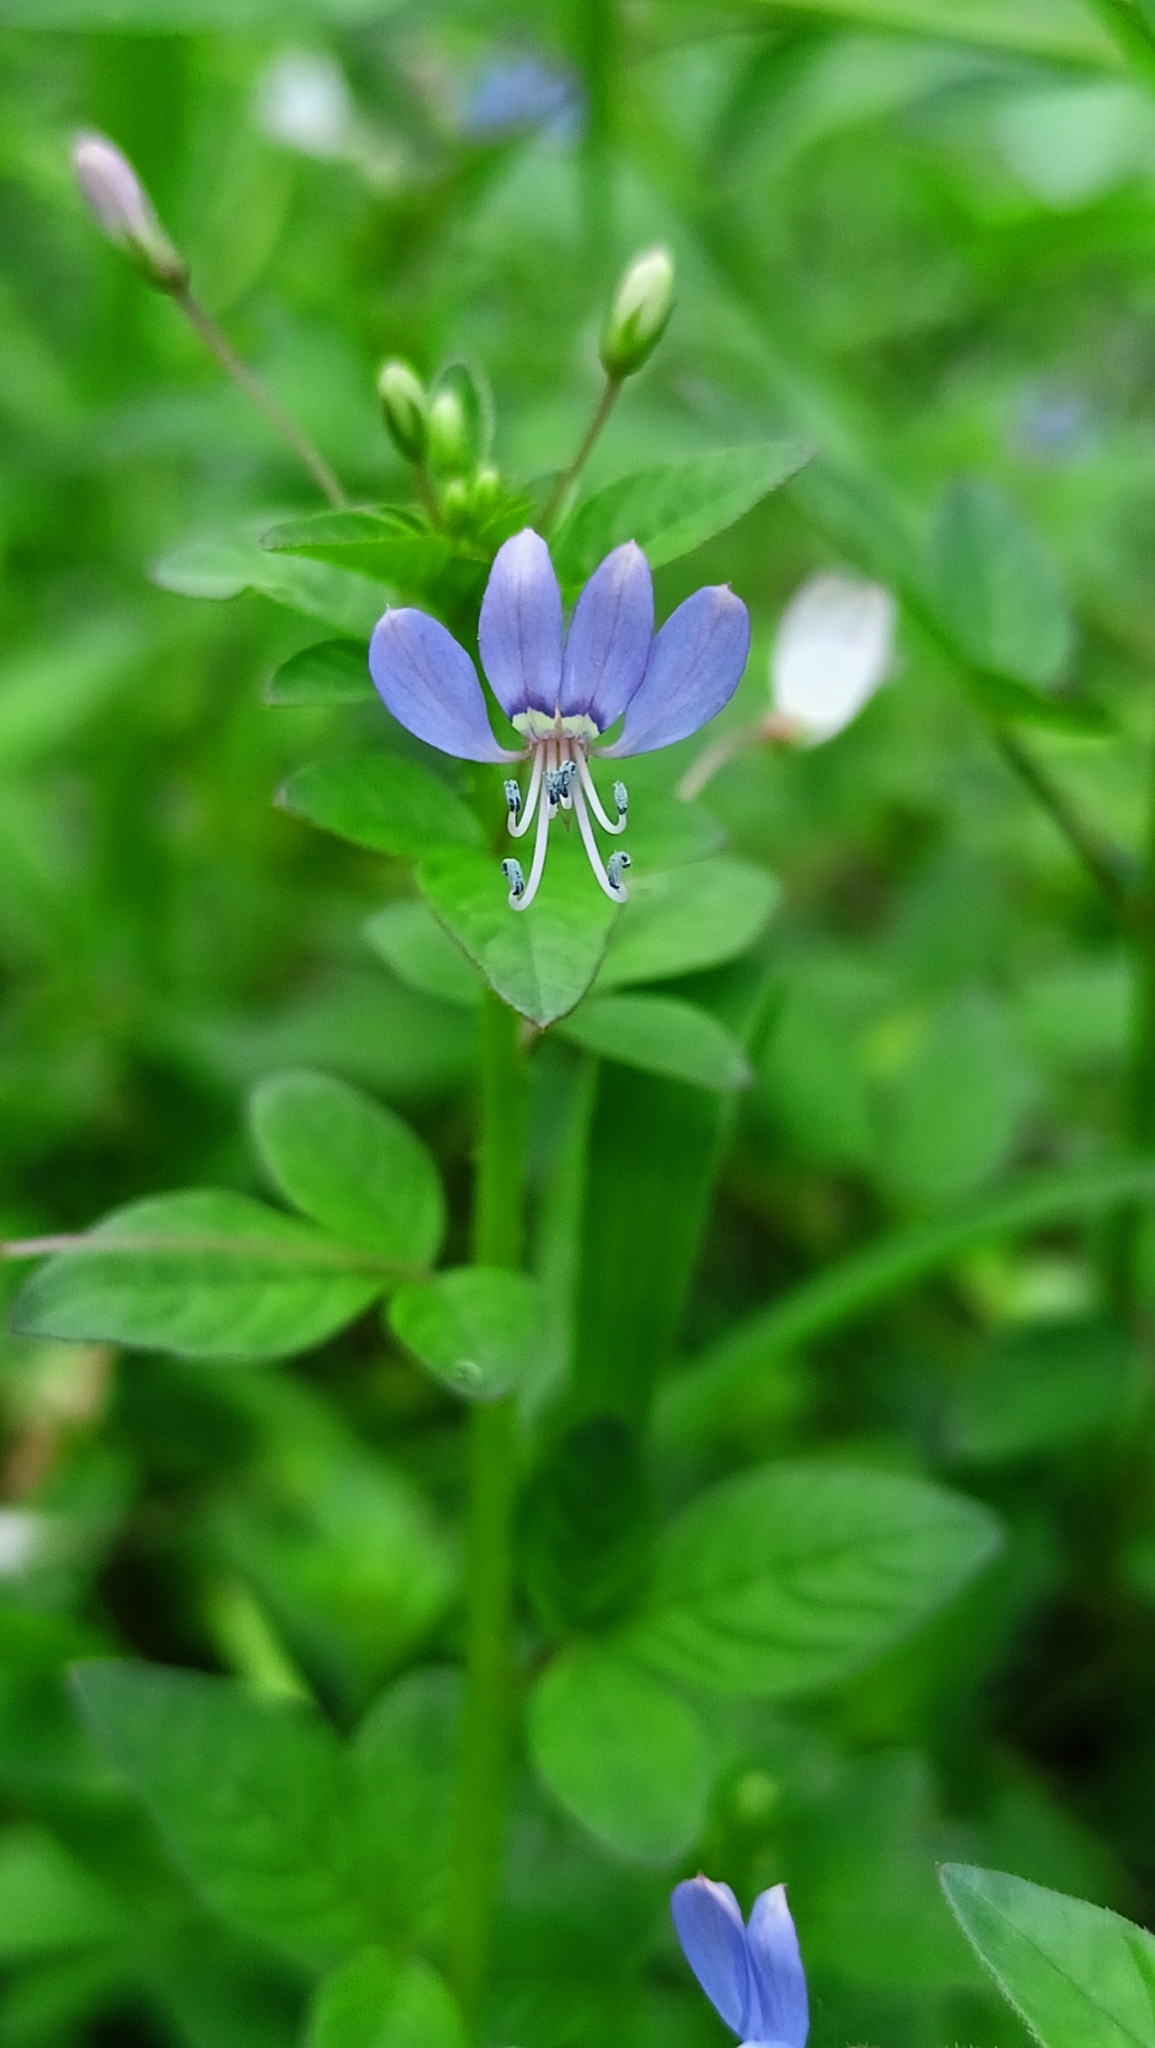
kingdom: Plantae
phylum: Tracheophyta
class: Magnoliopsida
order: Brassicales
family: Cleomaceae
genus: Sieruela
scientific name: Sieruela rutidosperma
